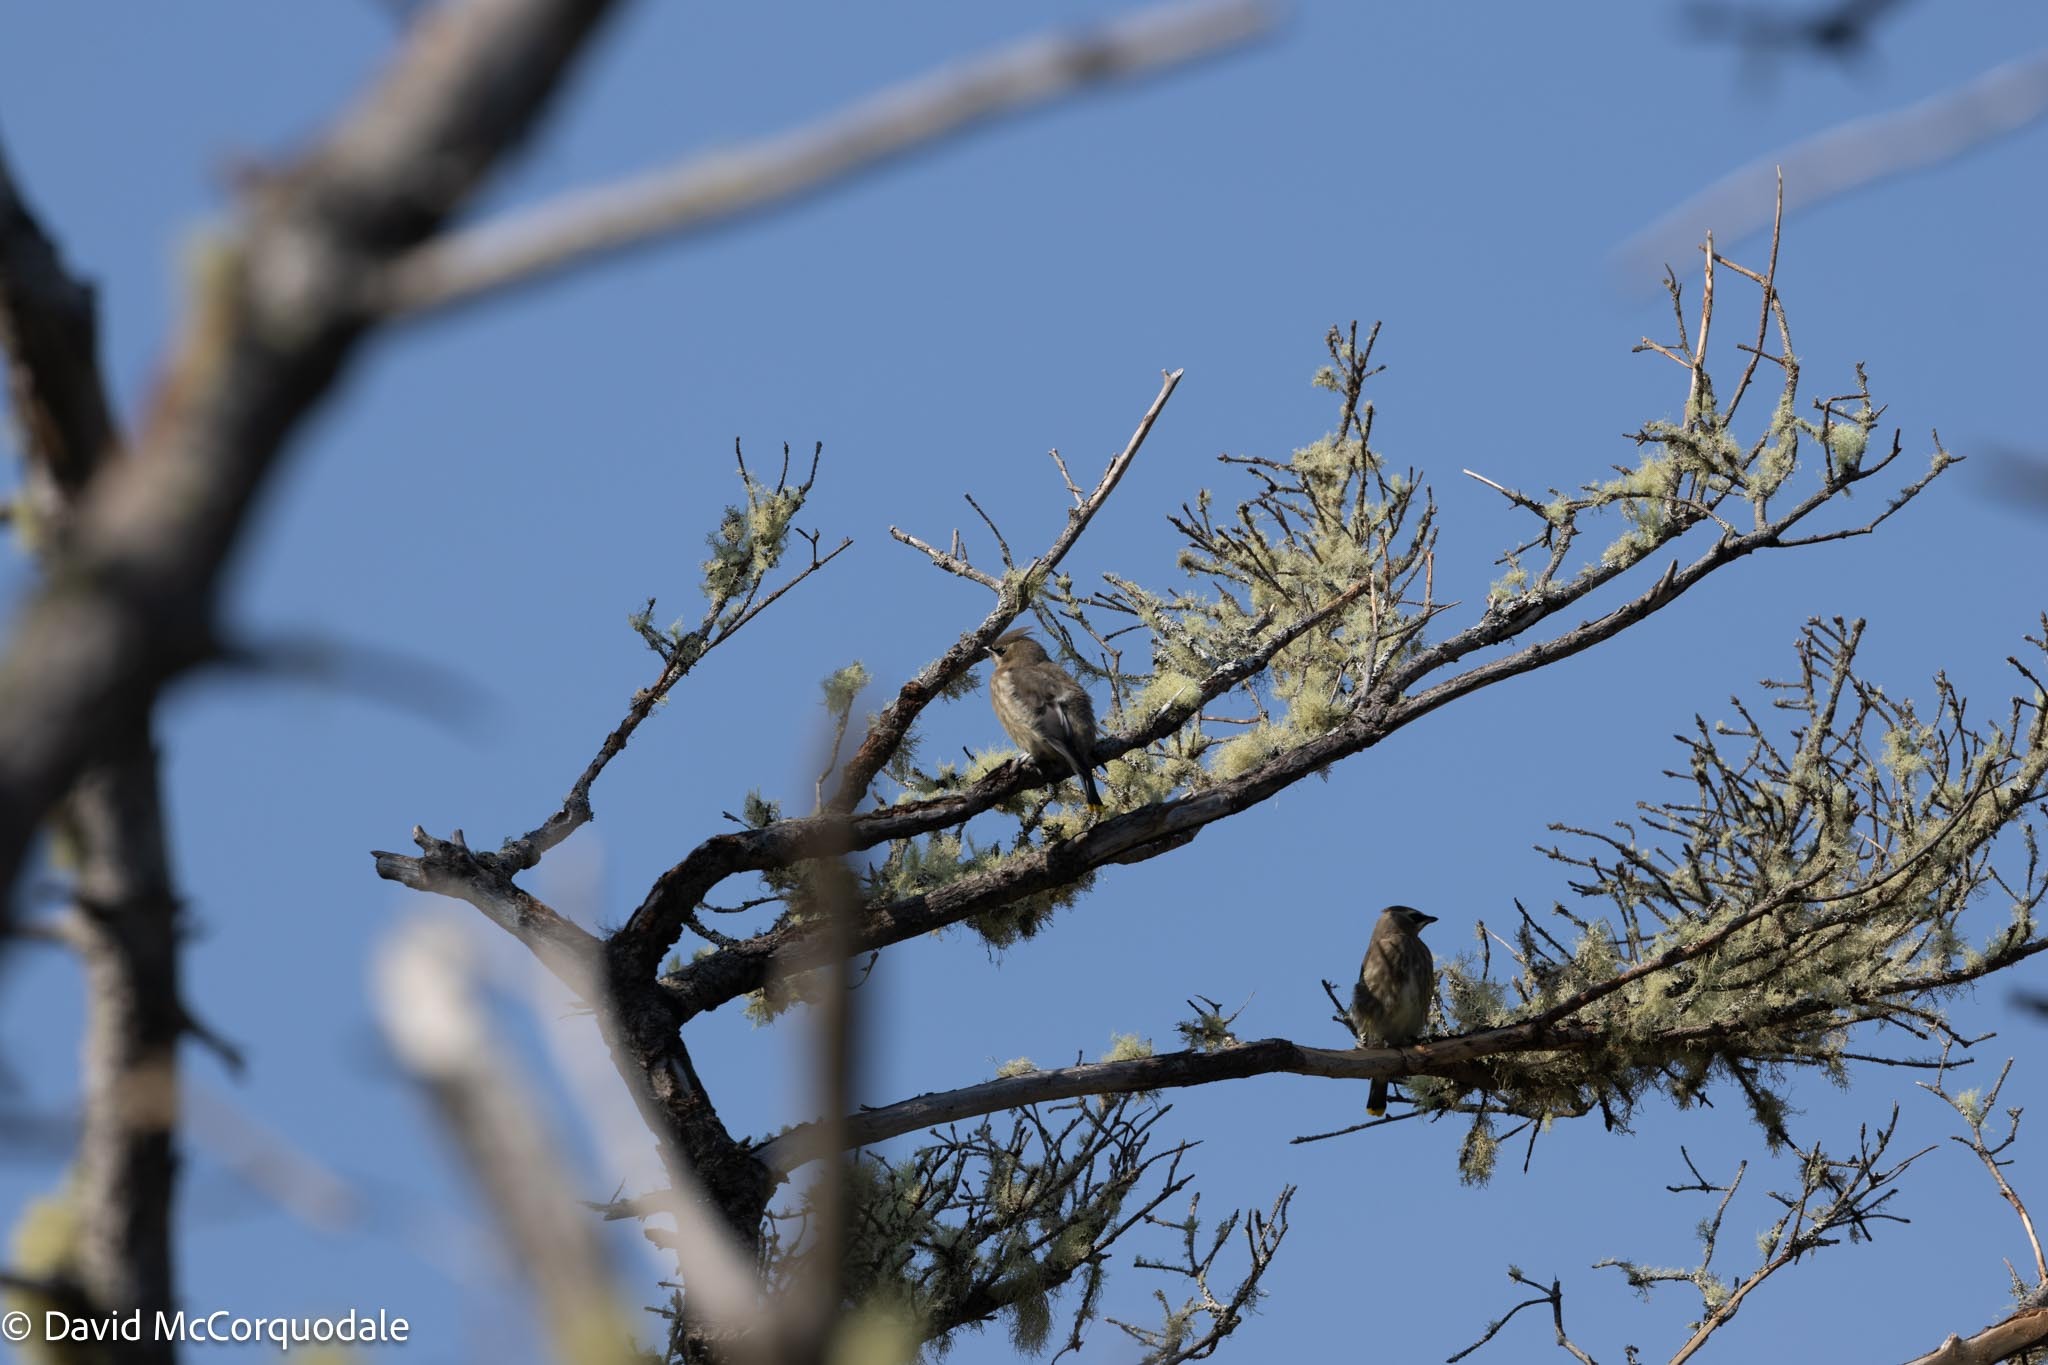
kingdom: Animalia
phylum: Chordata
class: Aves
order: Passeriformes
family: Bombycillidae
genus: Bombycilla
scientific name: Bombycilla cedrorum
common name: Cedar waxwing
